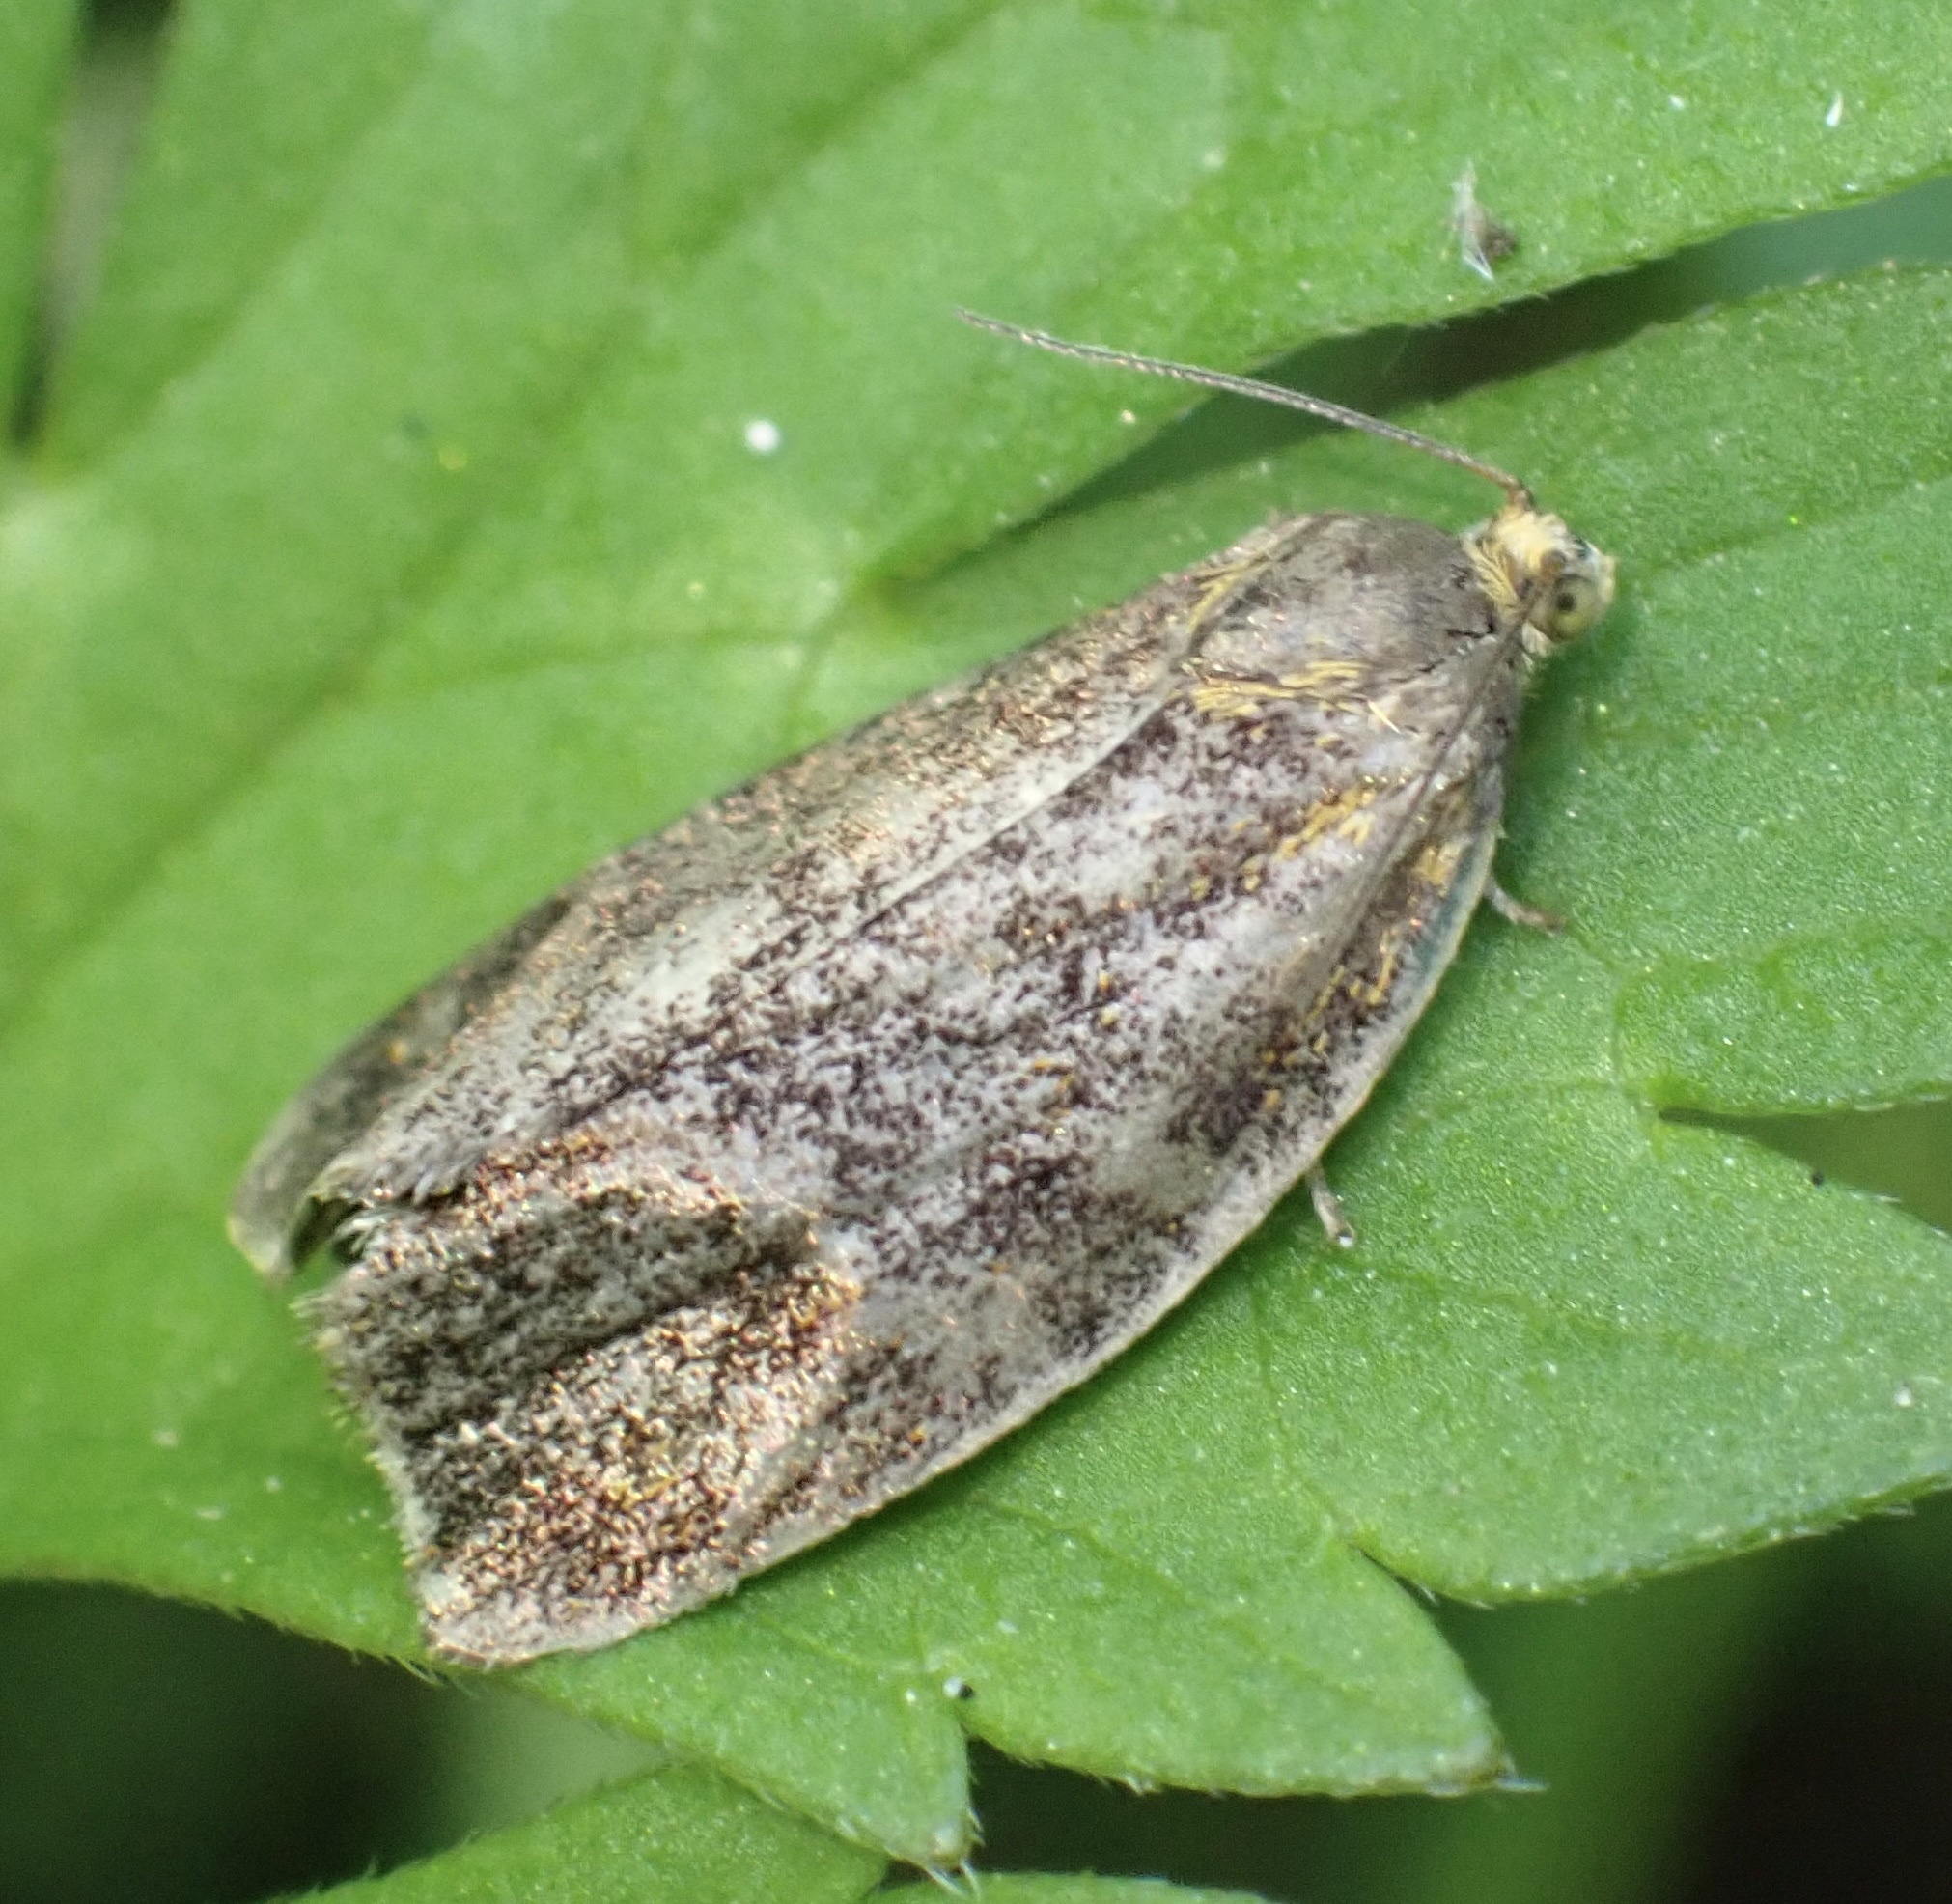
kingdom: Animalia
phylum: Arthropoda
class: Insecta
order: Lepidoptera
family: Tortricidae
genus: Ptycholoma
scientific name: Ptycholoma lecheana
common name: Leches twist moth
